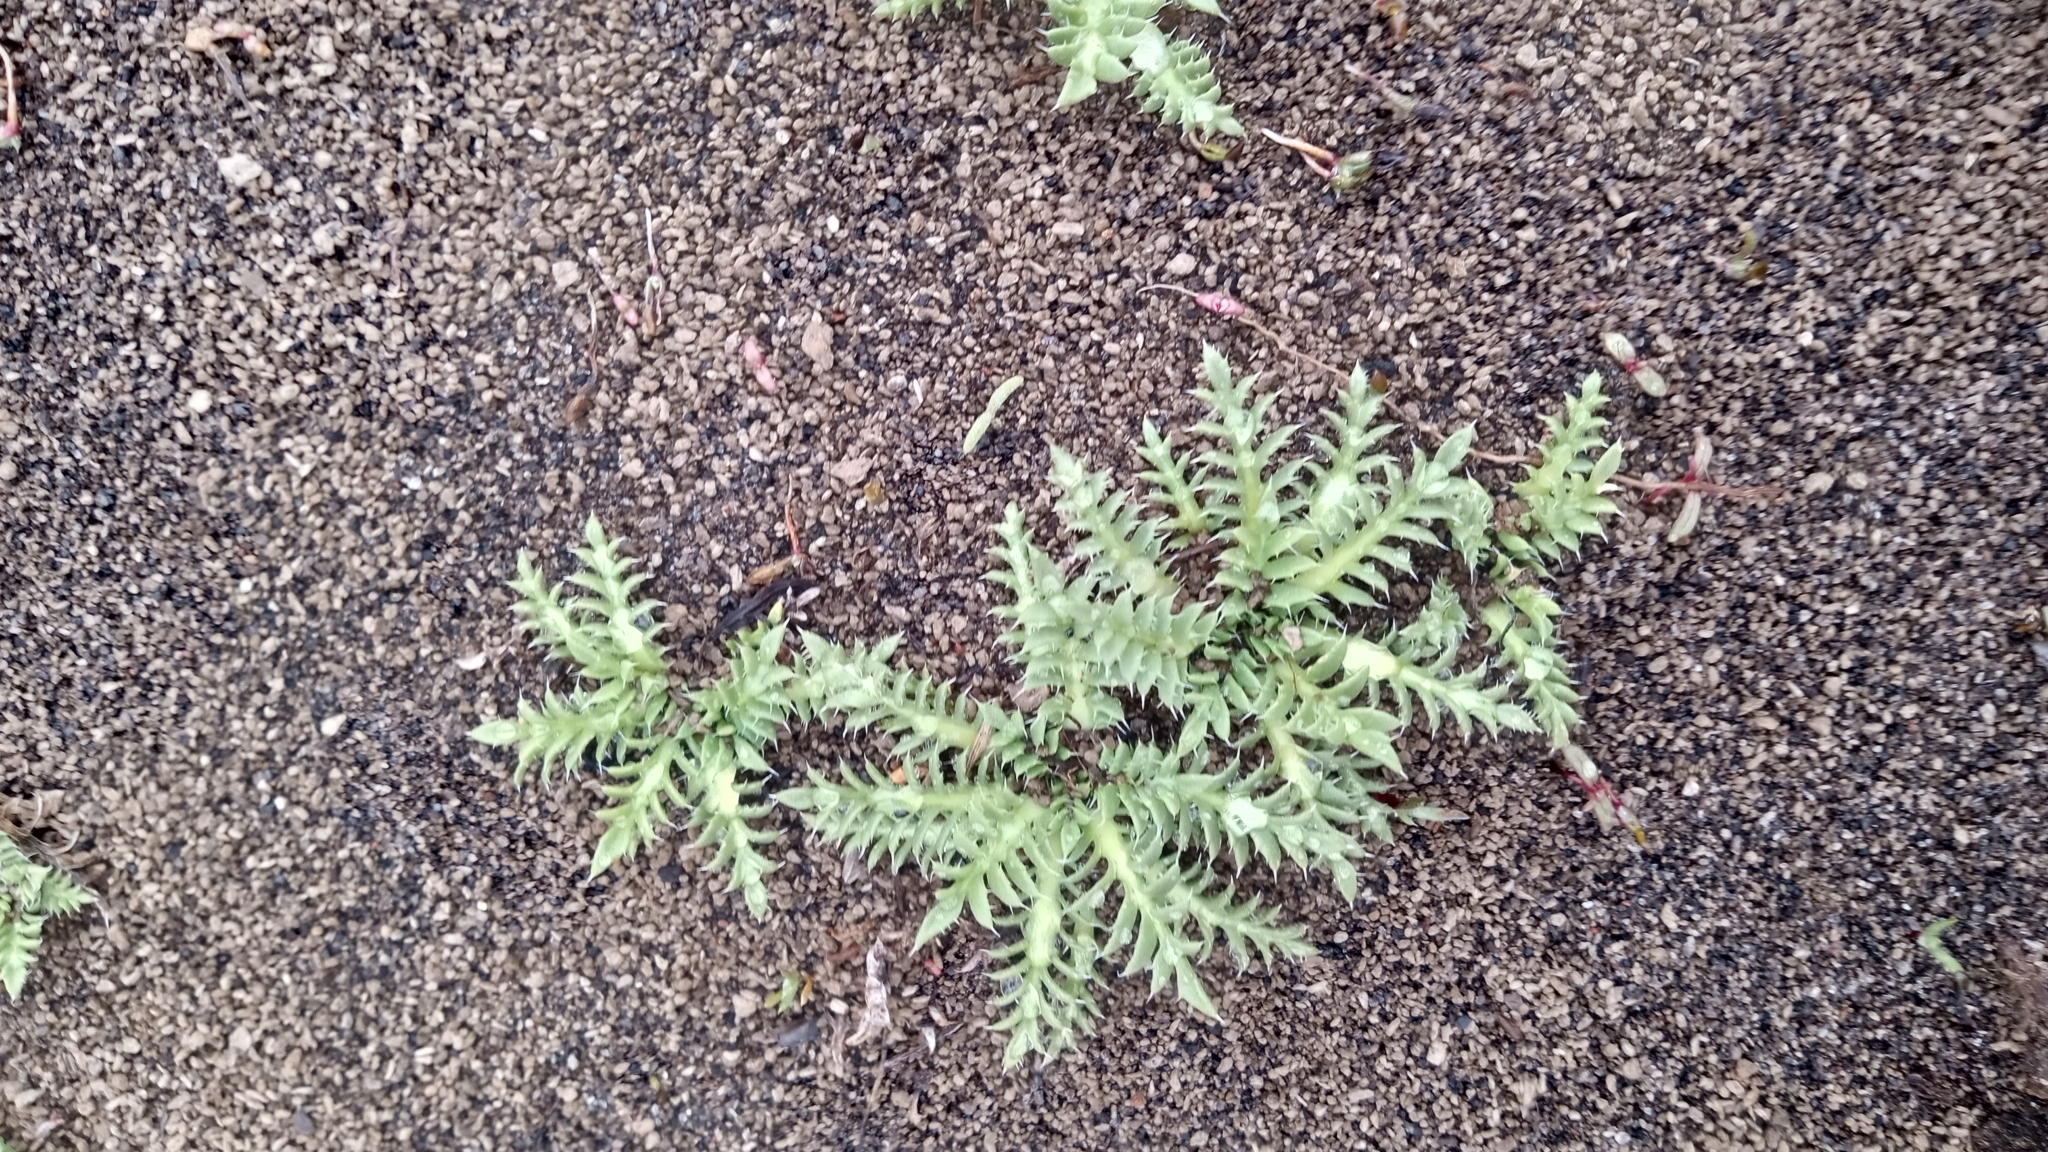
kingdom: Plantae
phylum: Tracheophyta
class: Magnoliopsida
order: Asterales
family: Asteraceae
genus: Perezia
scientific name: Perezia pilifera
